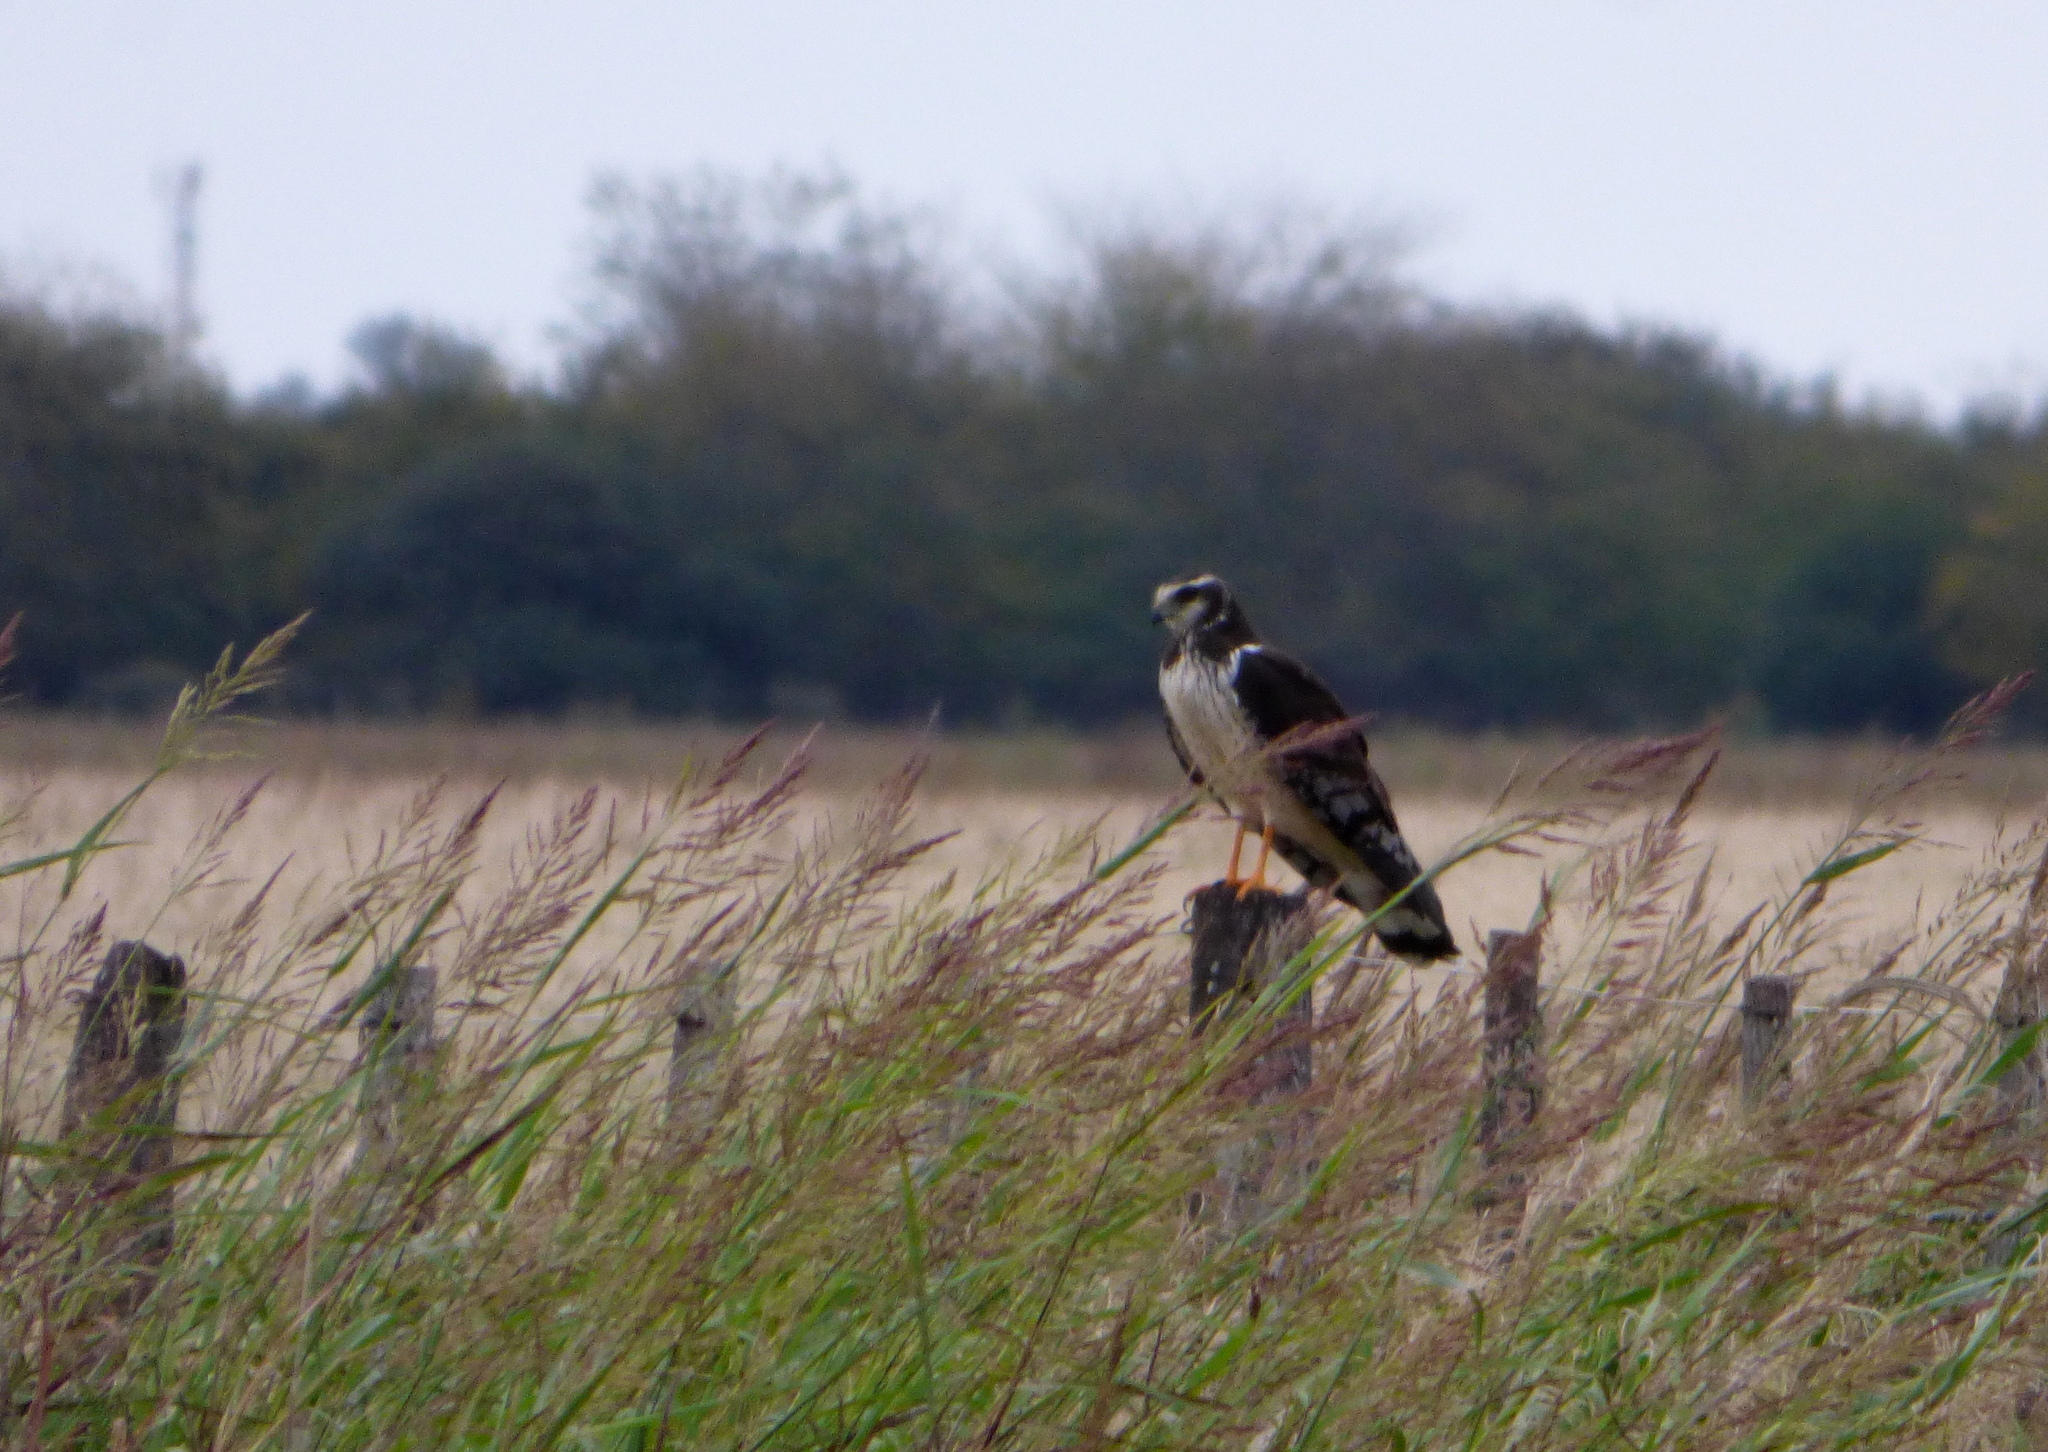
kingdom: Animalia
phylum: Chordata
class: Aves
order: Accipitriformes
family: Accipitridae
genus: Circus
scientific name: Circus buffoni
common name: Long-winged harrier
